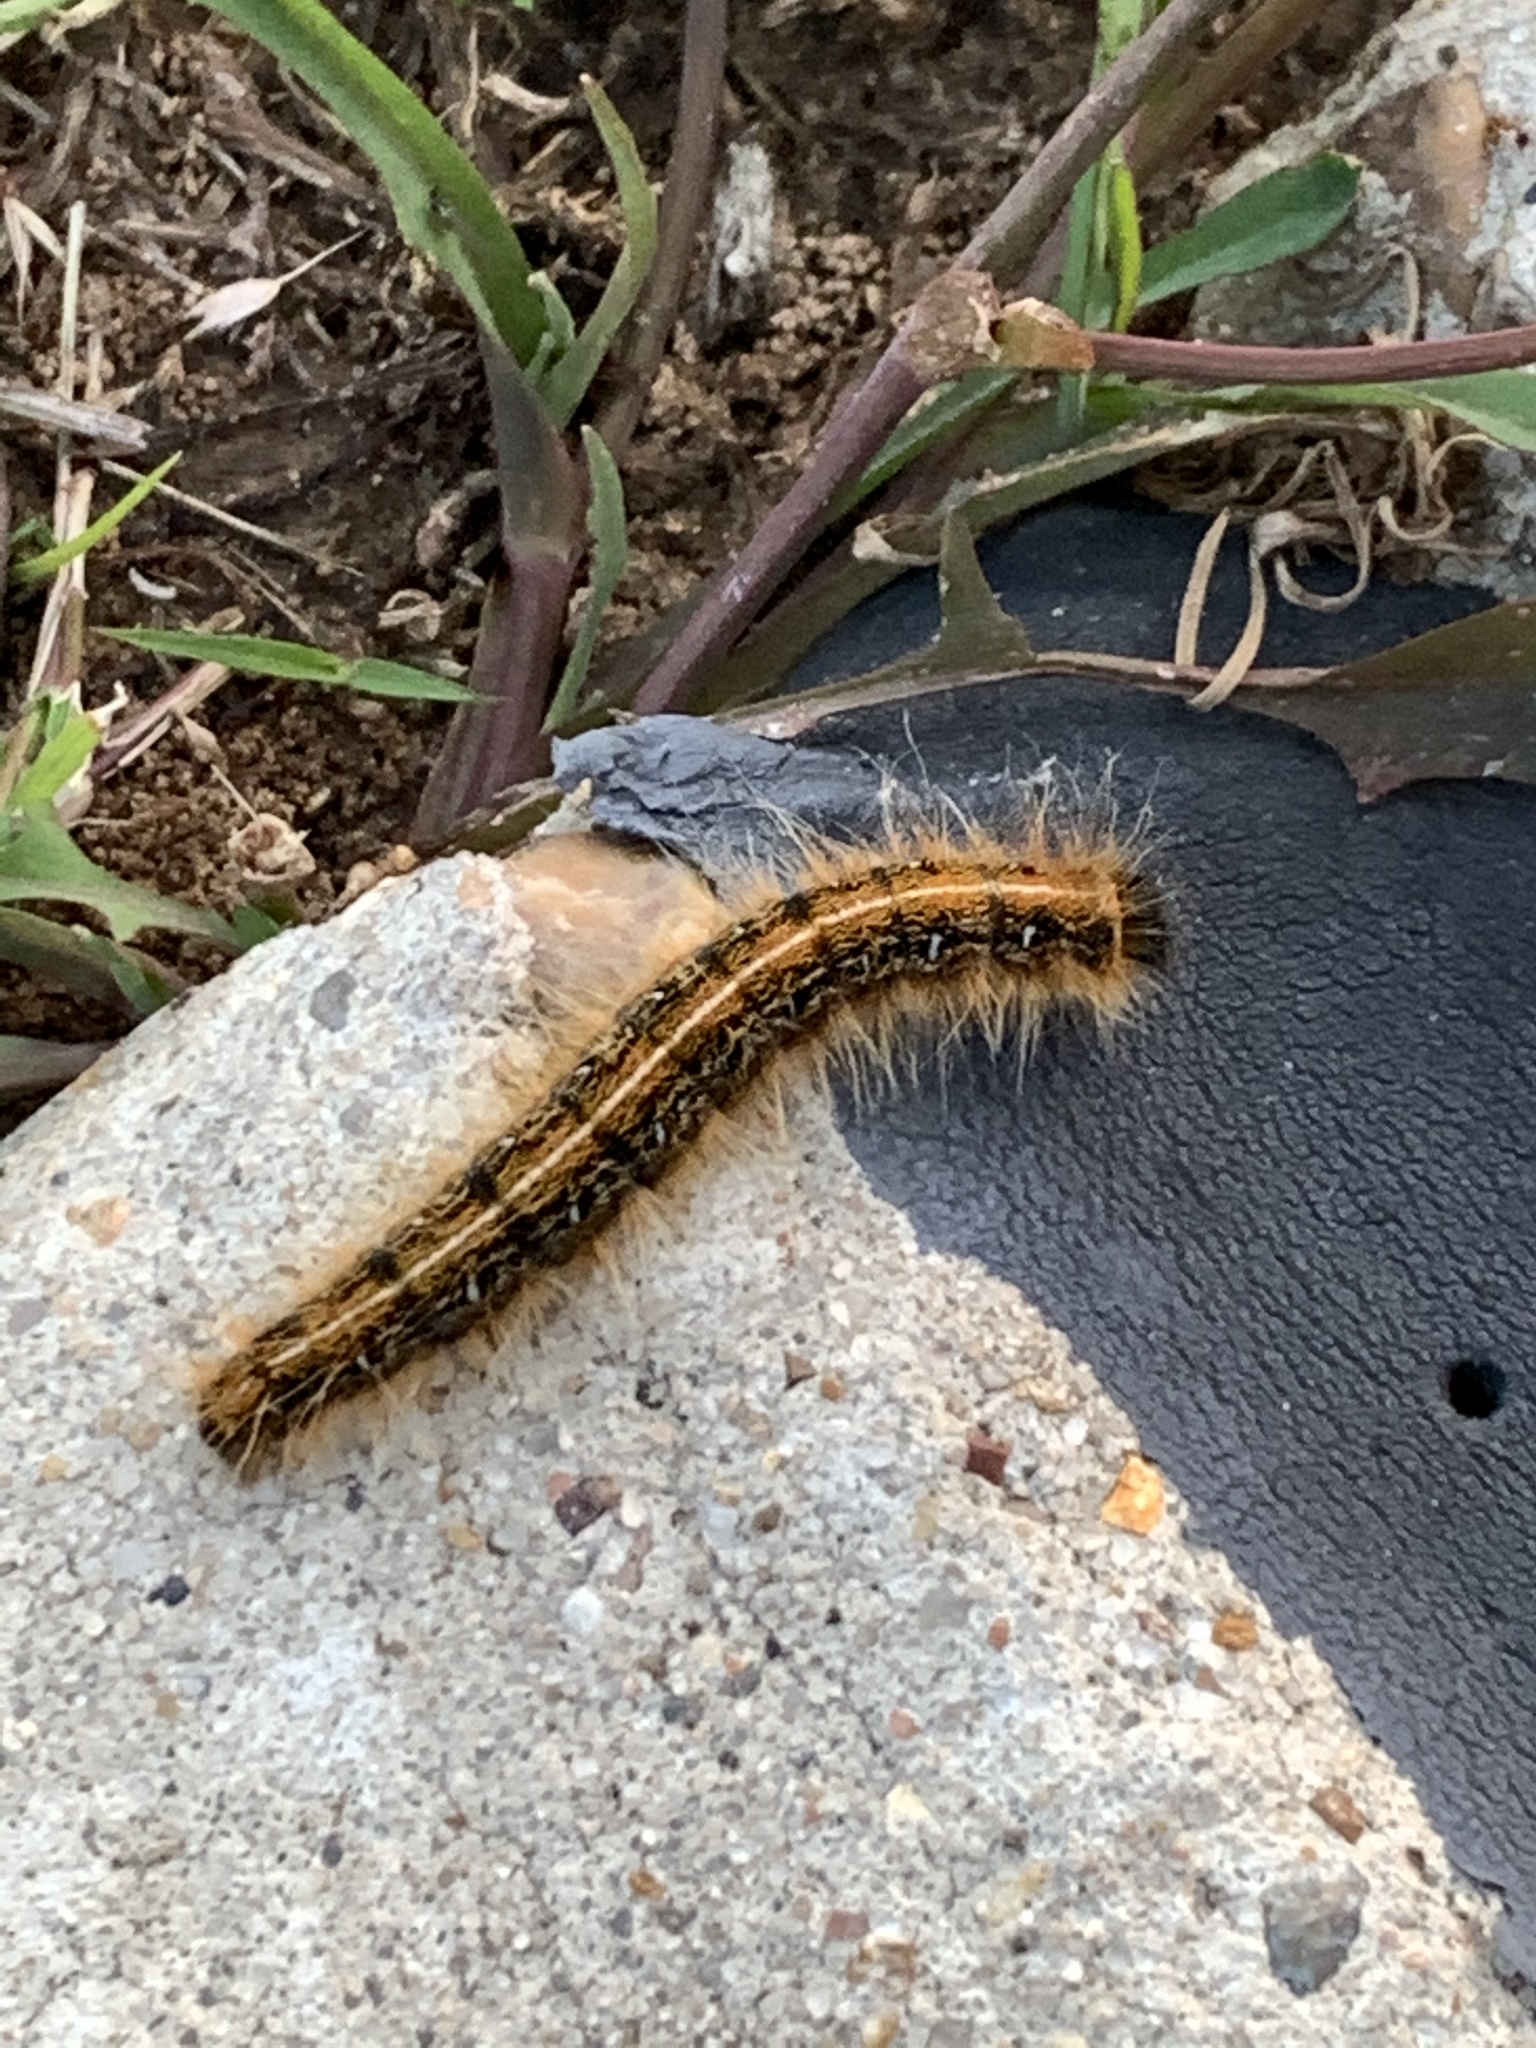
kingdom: Animalia
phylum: Arthropoda
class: Insecta
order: Lepidoptera
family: Lasiocampidae
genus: Malacosoma
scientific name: Malacosoma americana
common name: Eastern tent caterpillar moth
